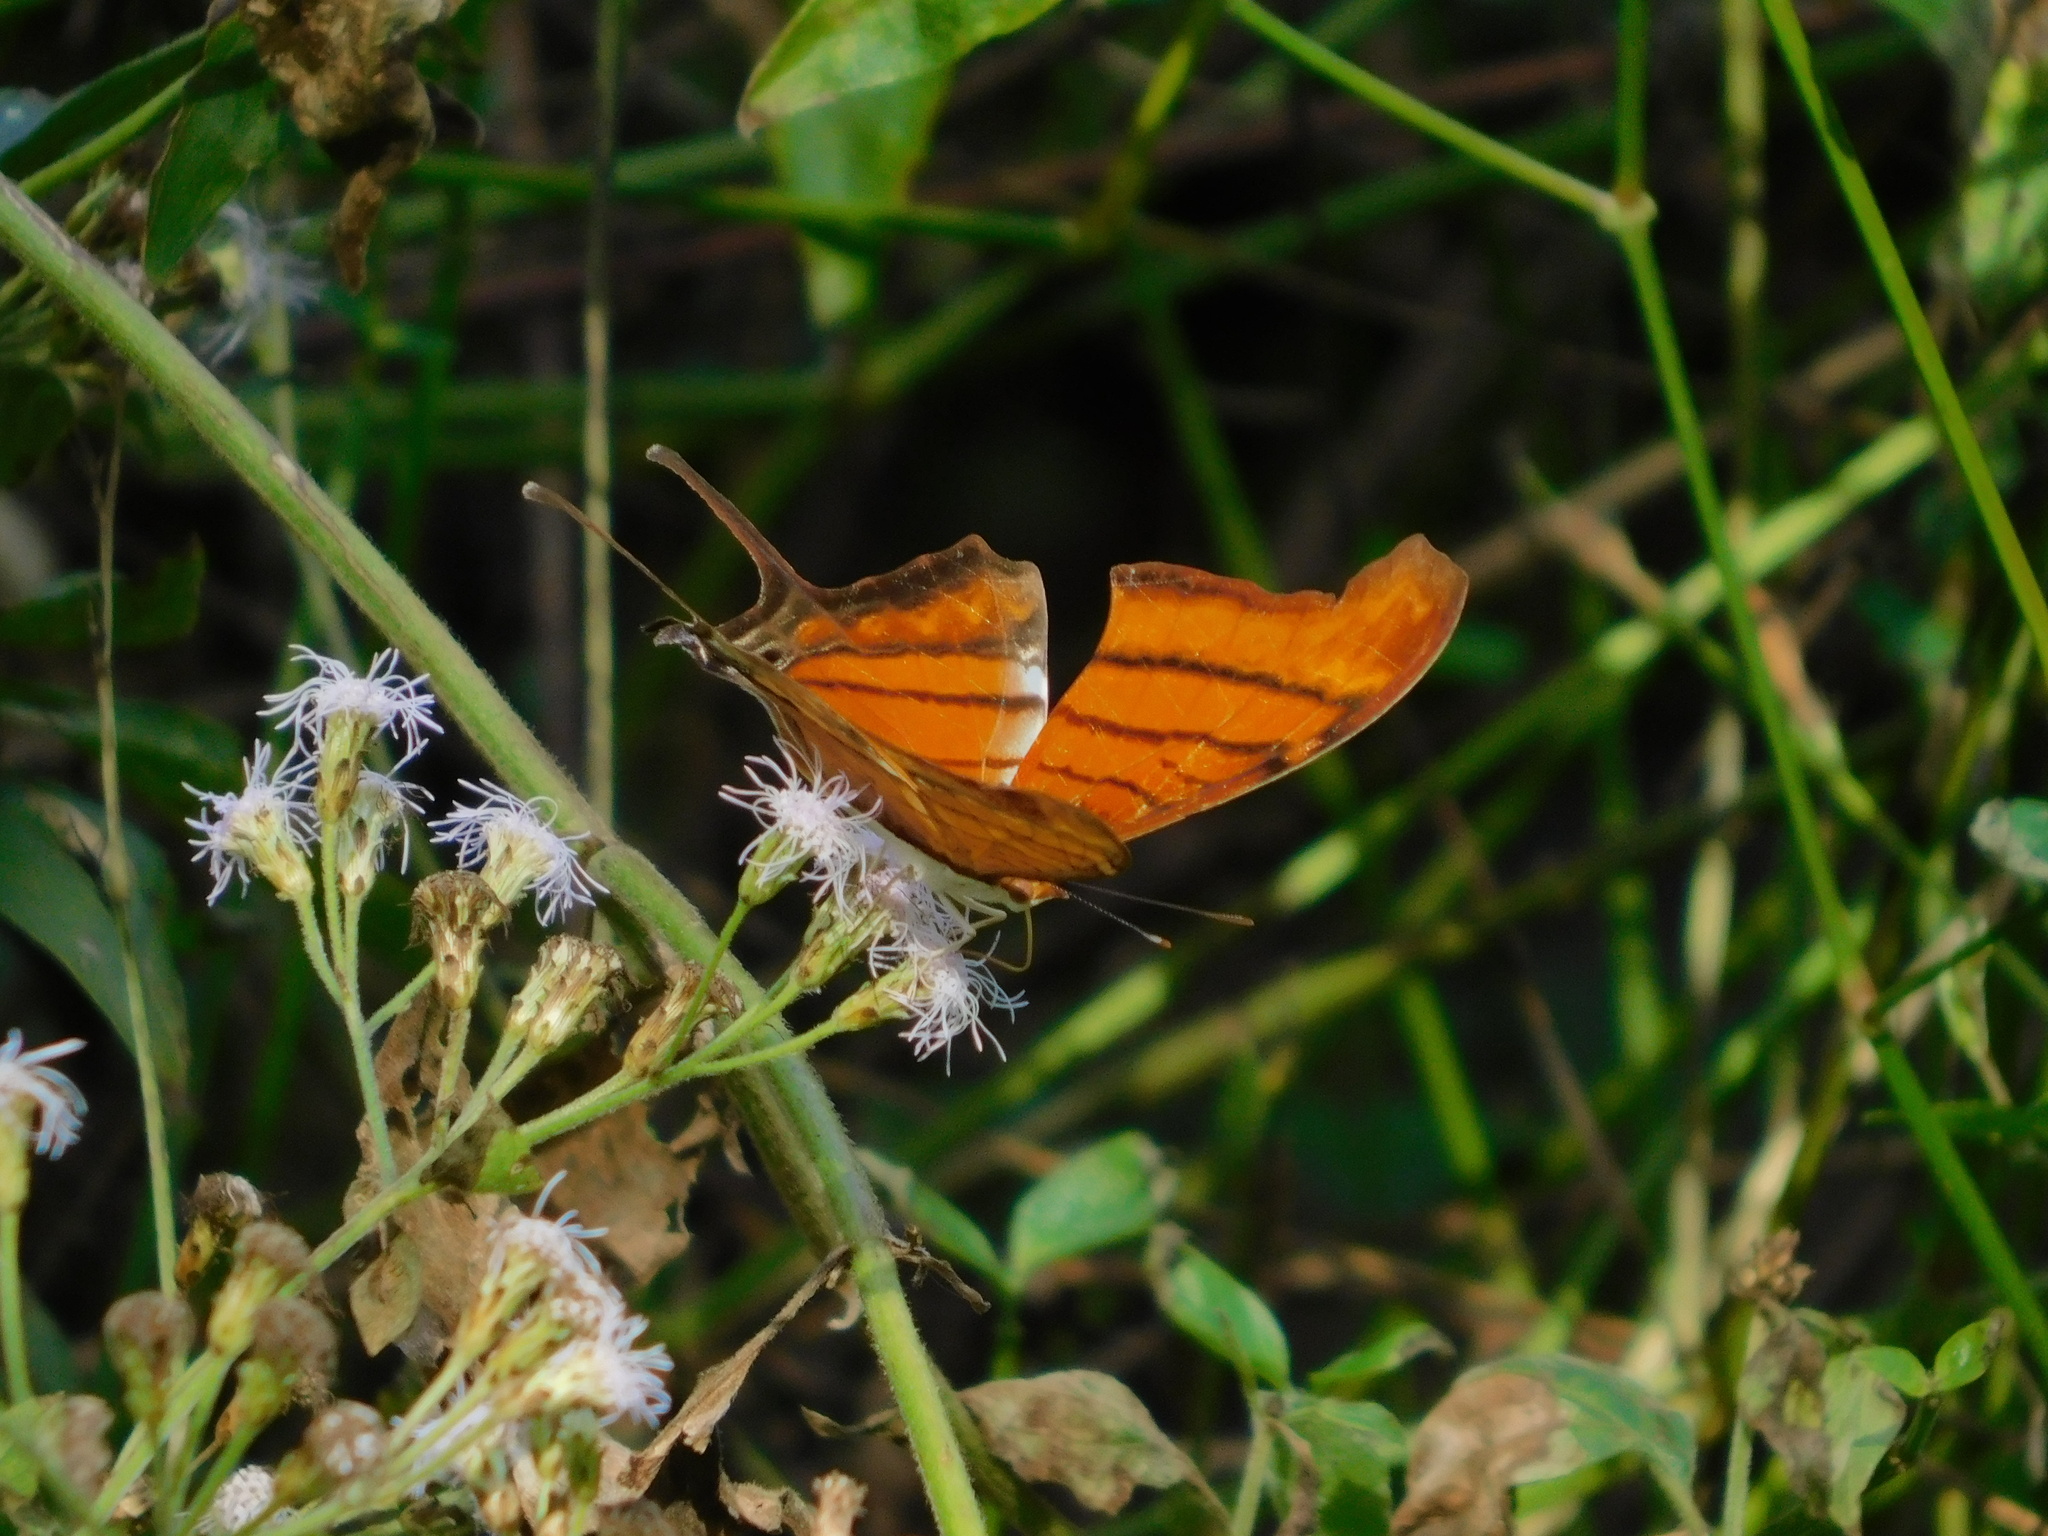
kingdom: Animalia
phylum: Arthropoda
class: Insecta
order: Lepidoptera
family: Nymphalidae
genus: Marpesia
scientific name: Marpesia petreus
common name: Red dagger wing
